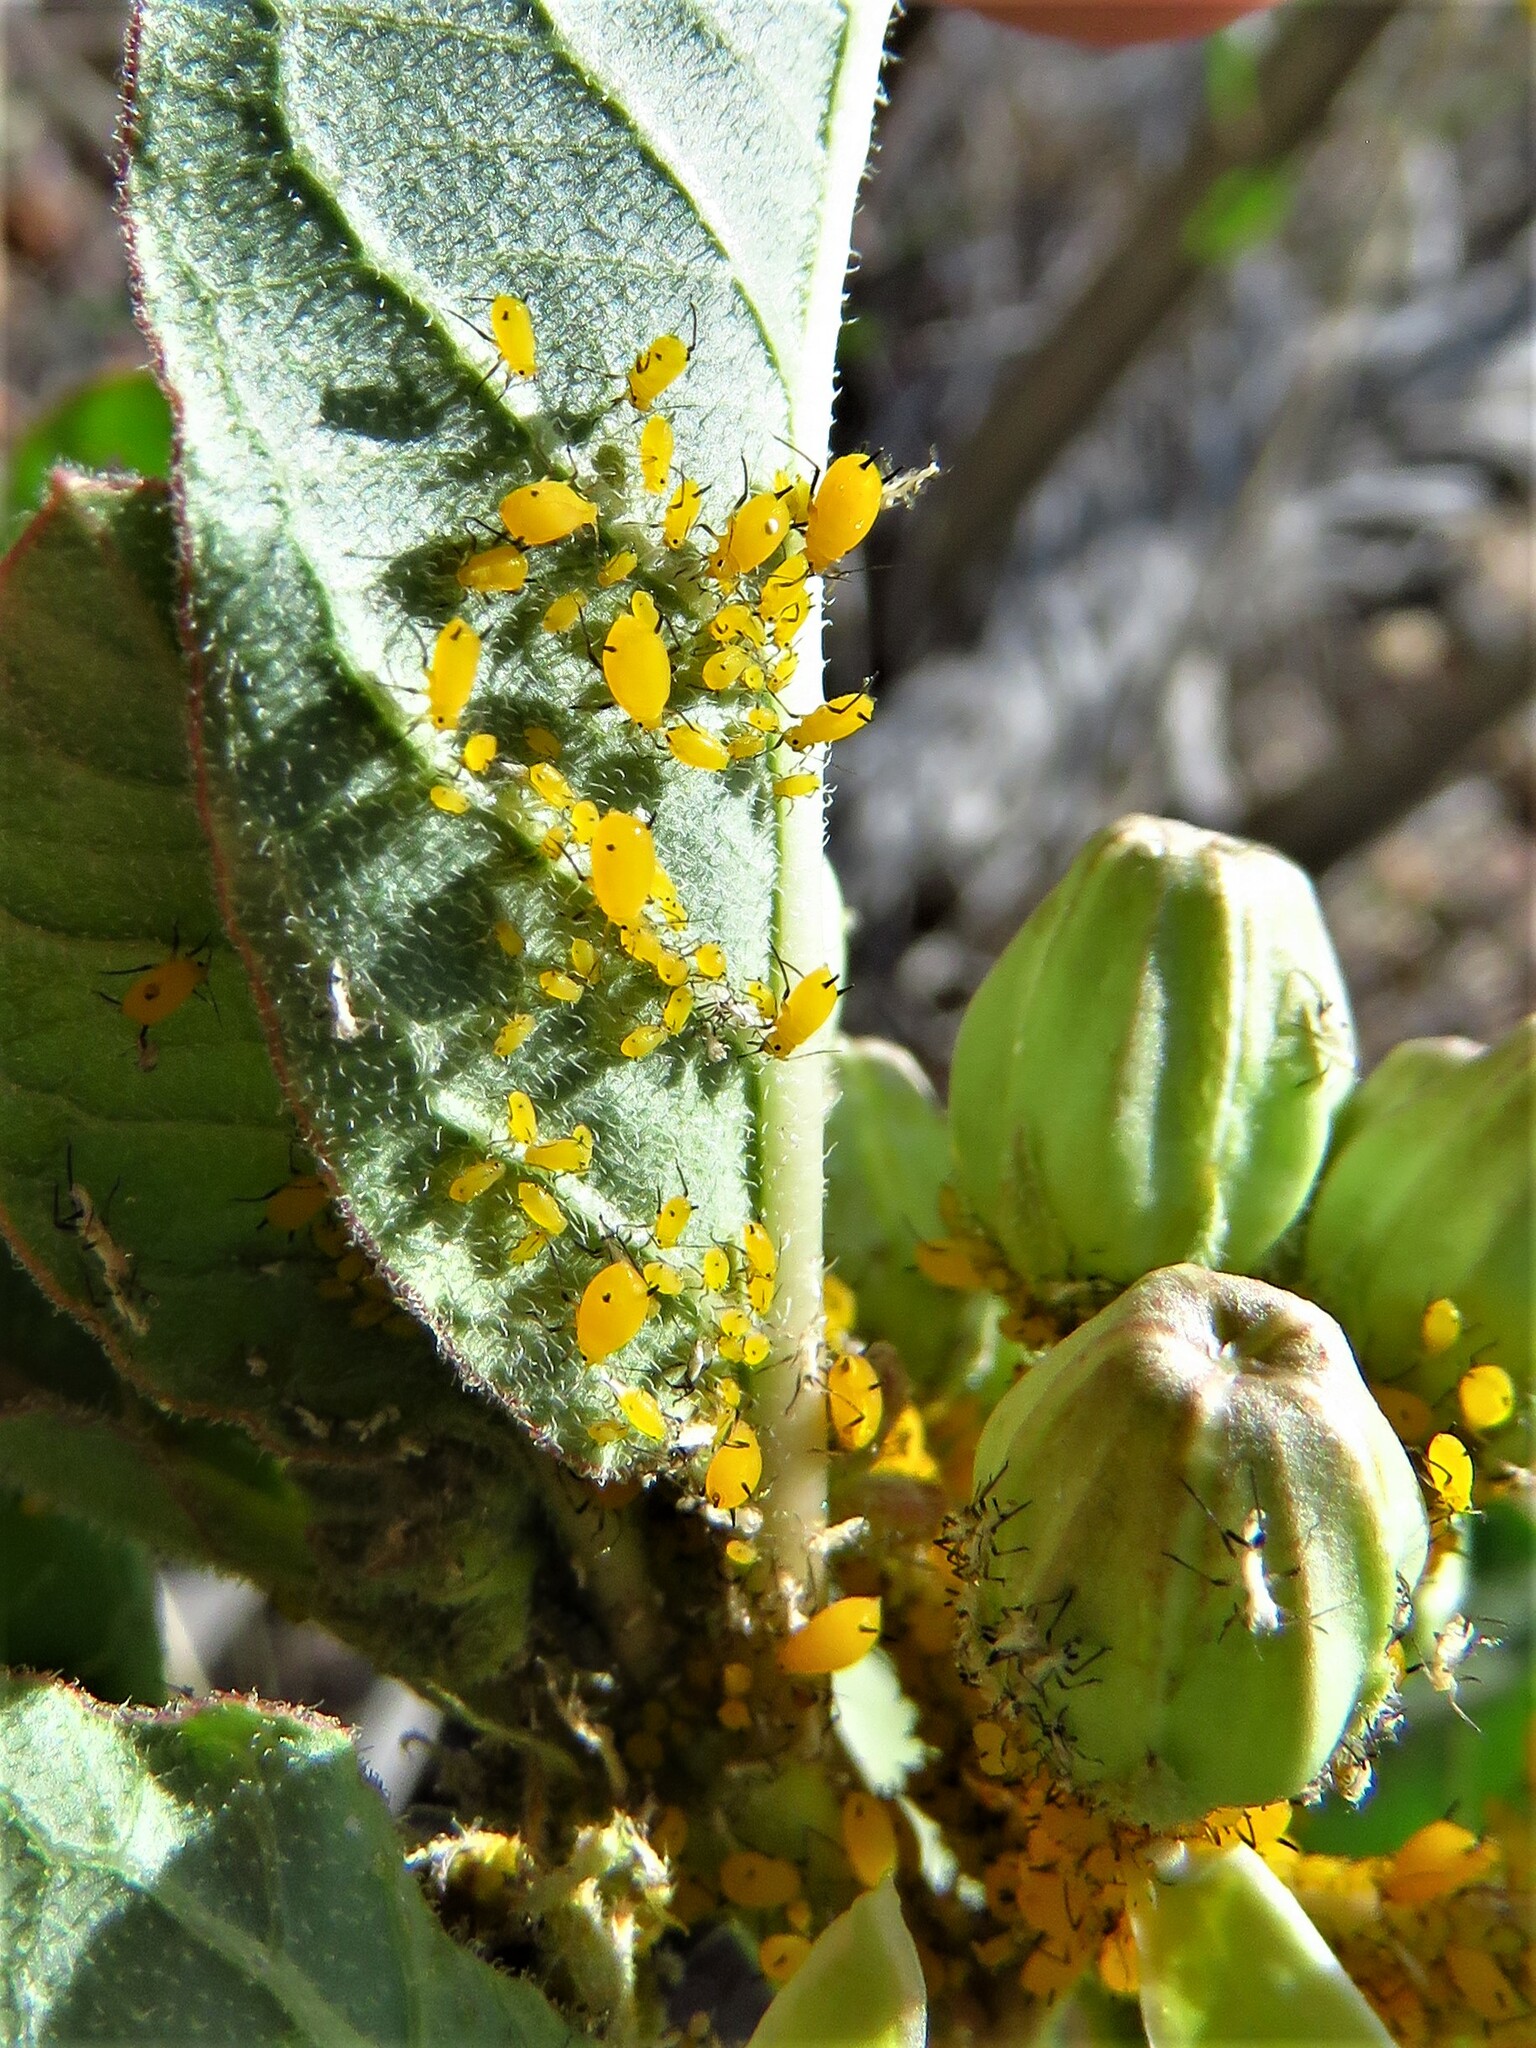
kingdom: Animalia
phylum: Arthropoda
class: Insecta
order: Hemiptera
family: Aphididae
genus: Aphis
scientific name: Aphis nerii
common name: Oleander aphid
